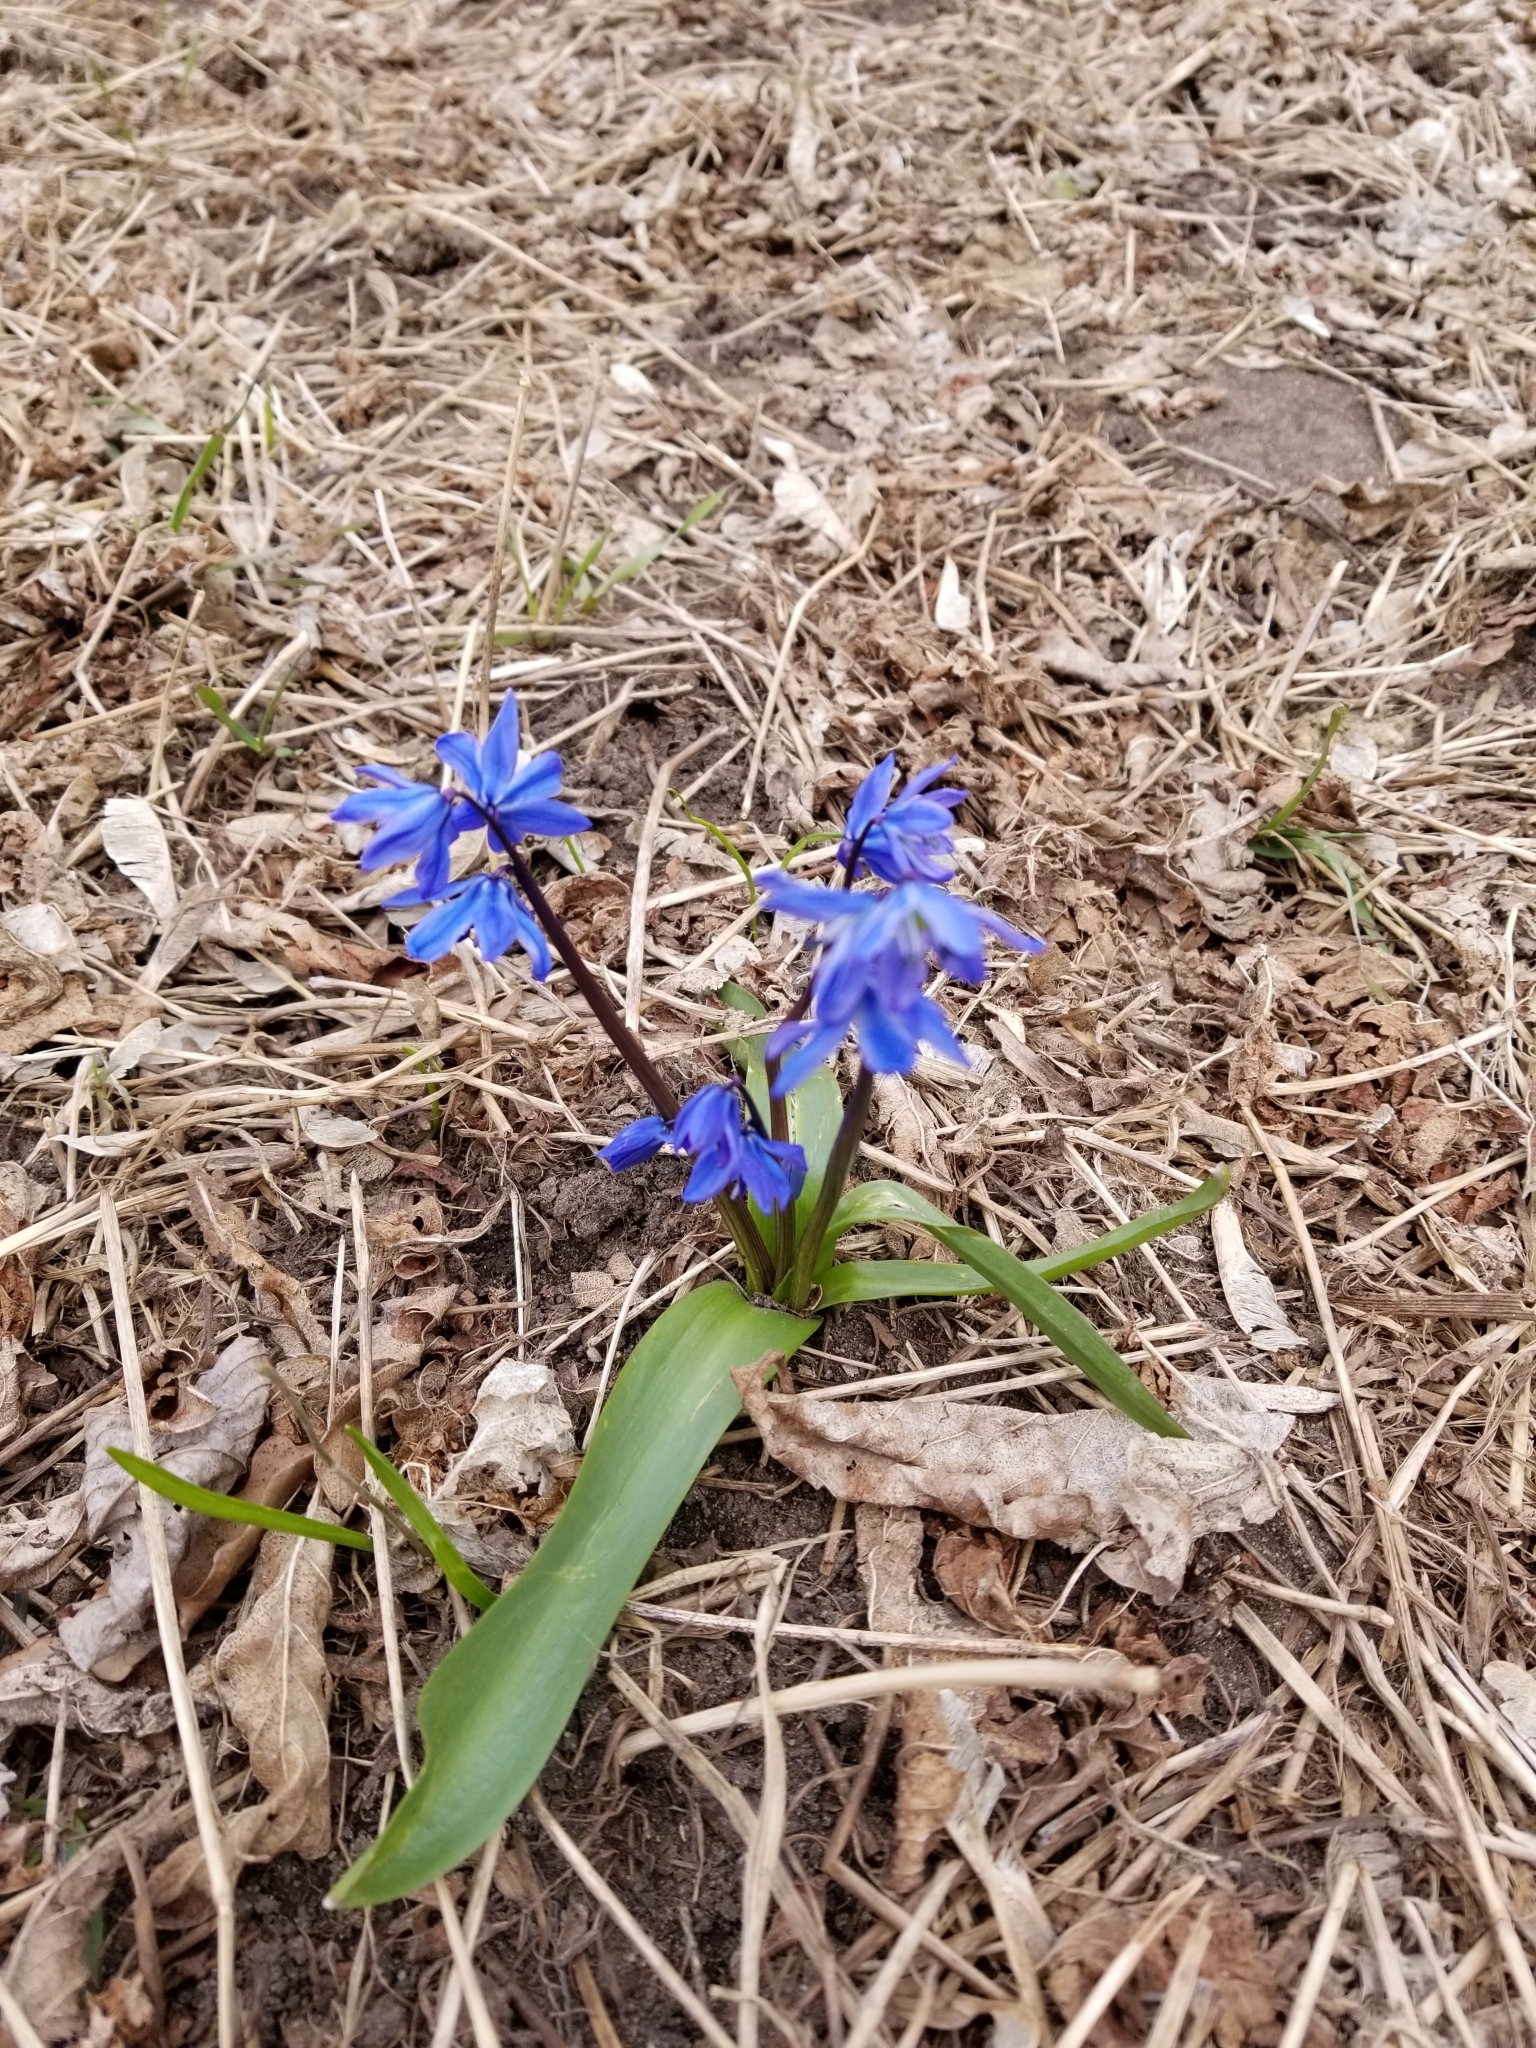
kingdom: Plantae
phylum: Tracheophyta
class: Liliopsida
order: Asparagales
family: Asparagaceae
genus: Scilla
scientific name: Scilla siberica
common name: Siberian squill
